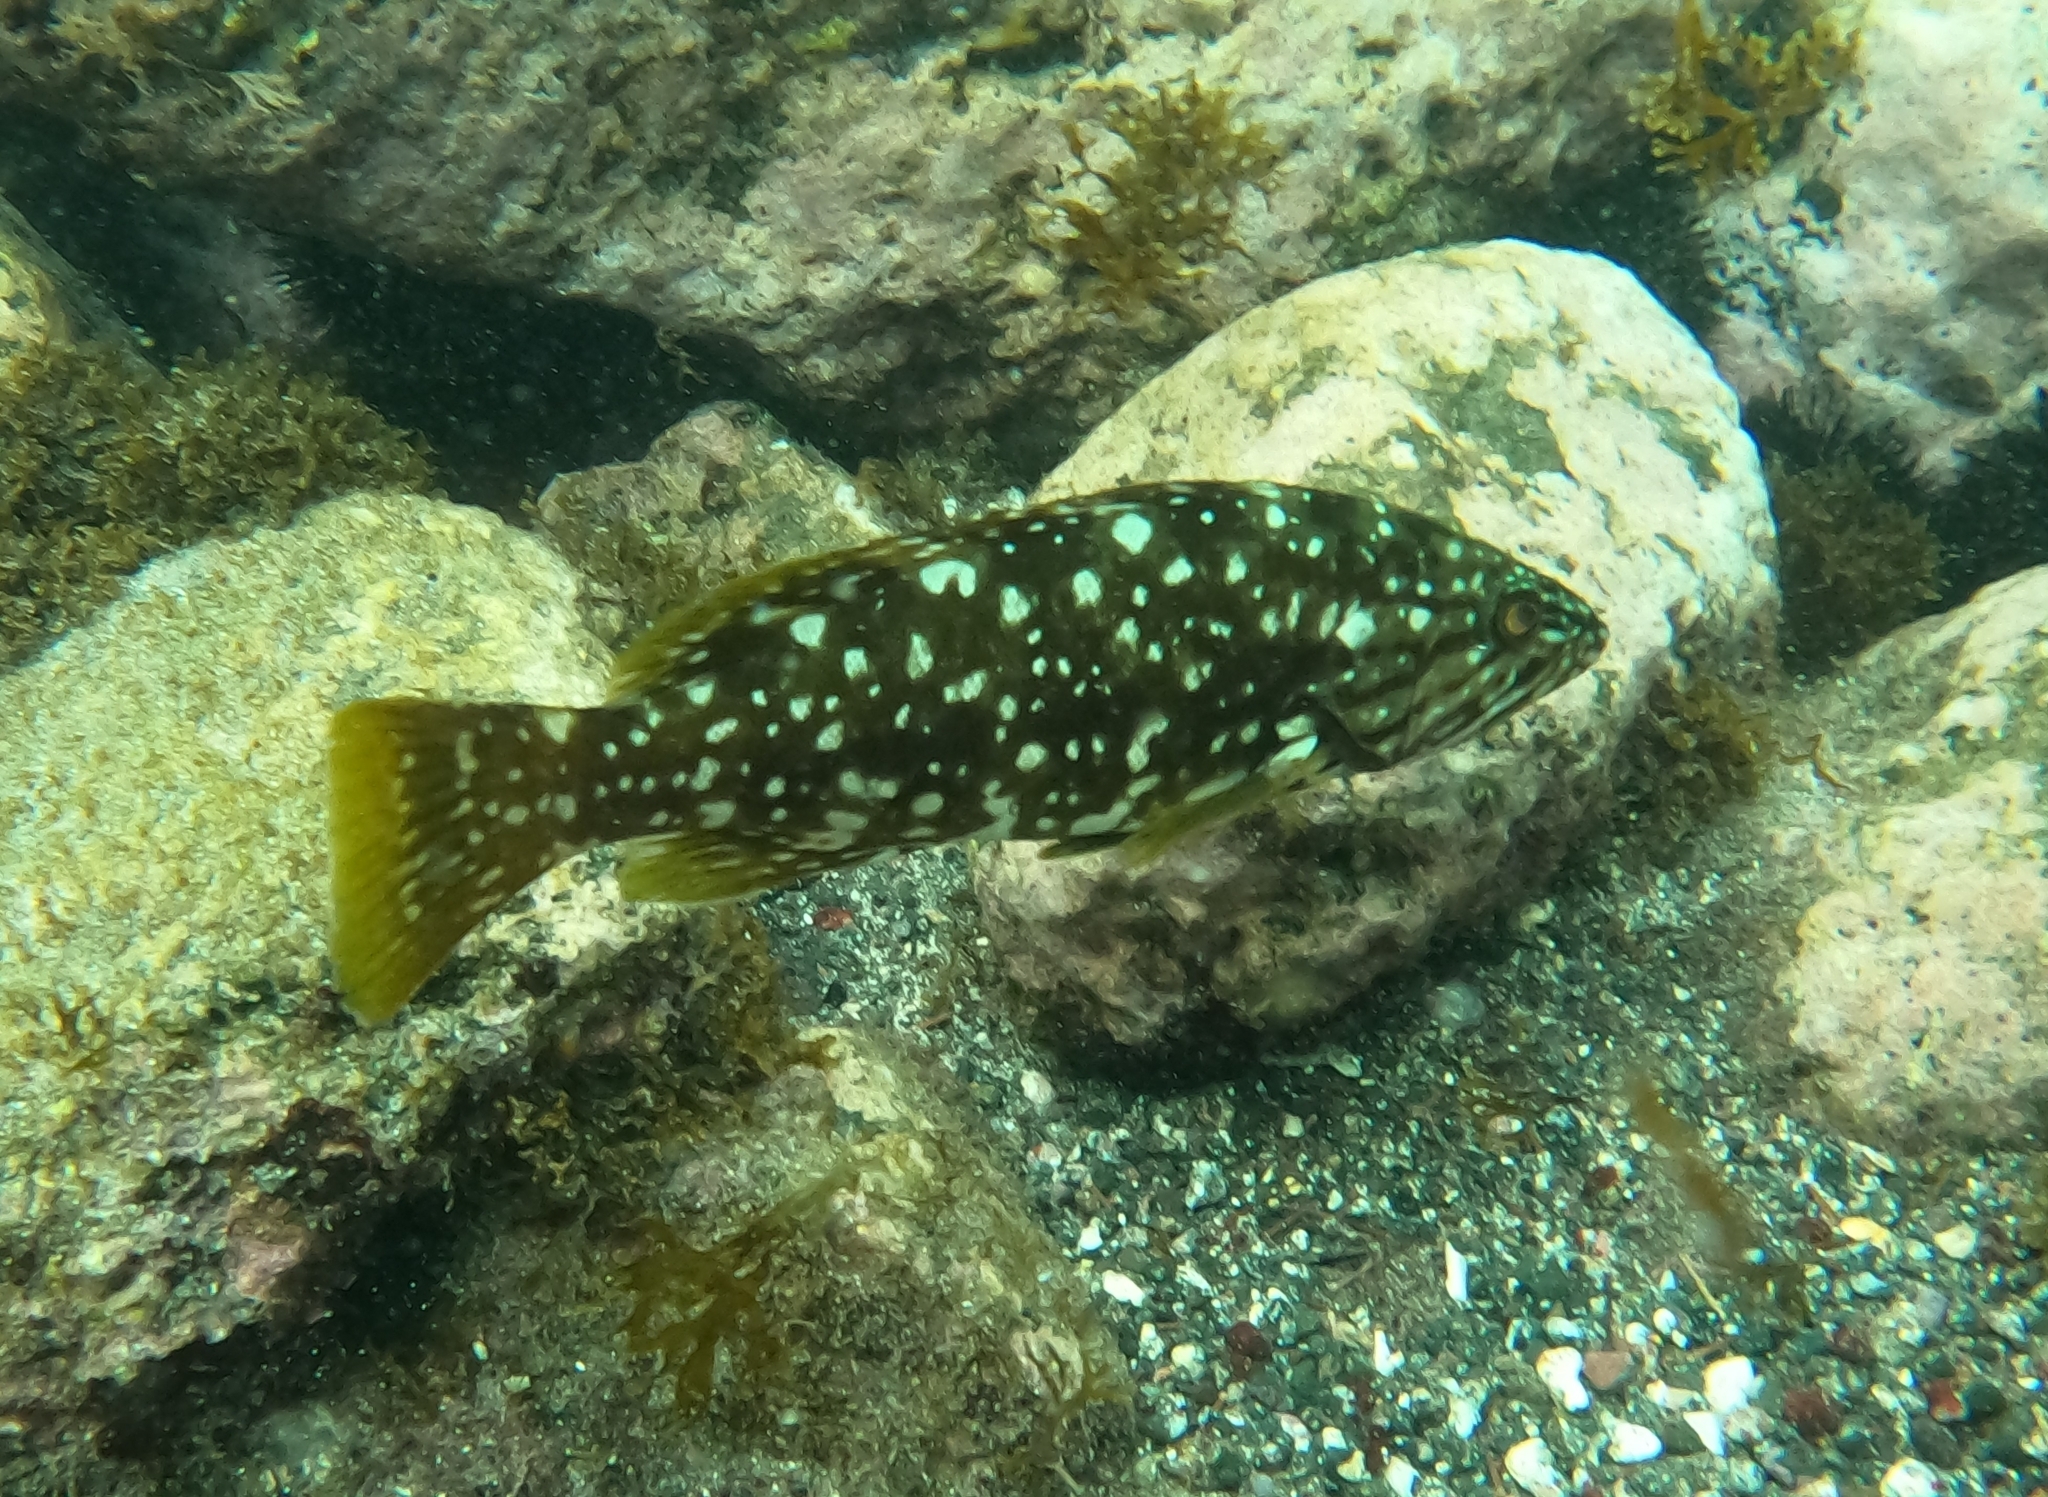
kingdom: Animalia
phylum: Chordata
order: Perciformes
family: Serranidae
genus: Mycteroperca
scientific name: Mycteroperca fusca
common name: Island grouper
